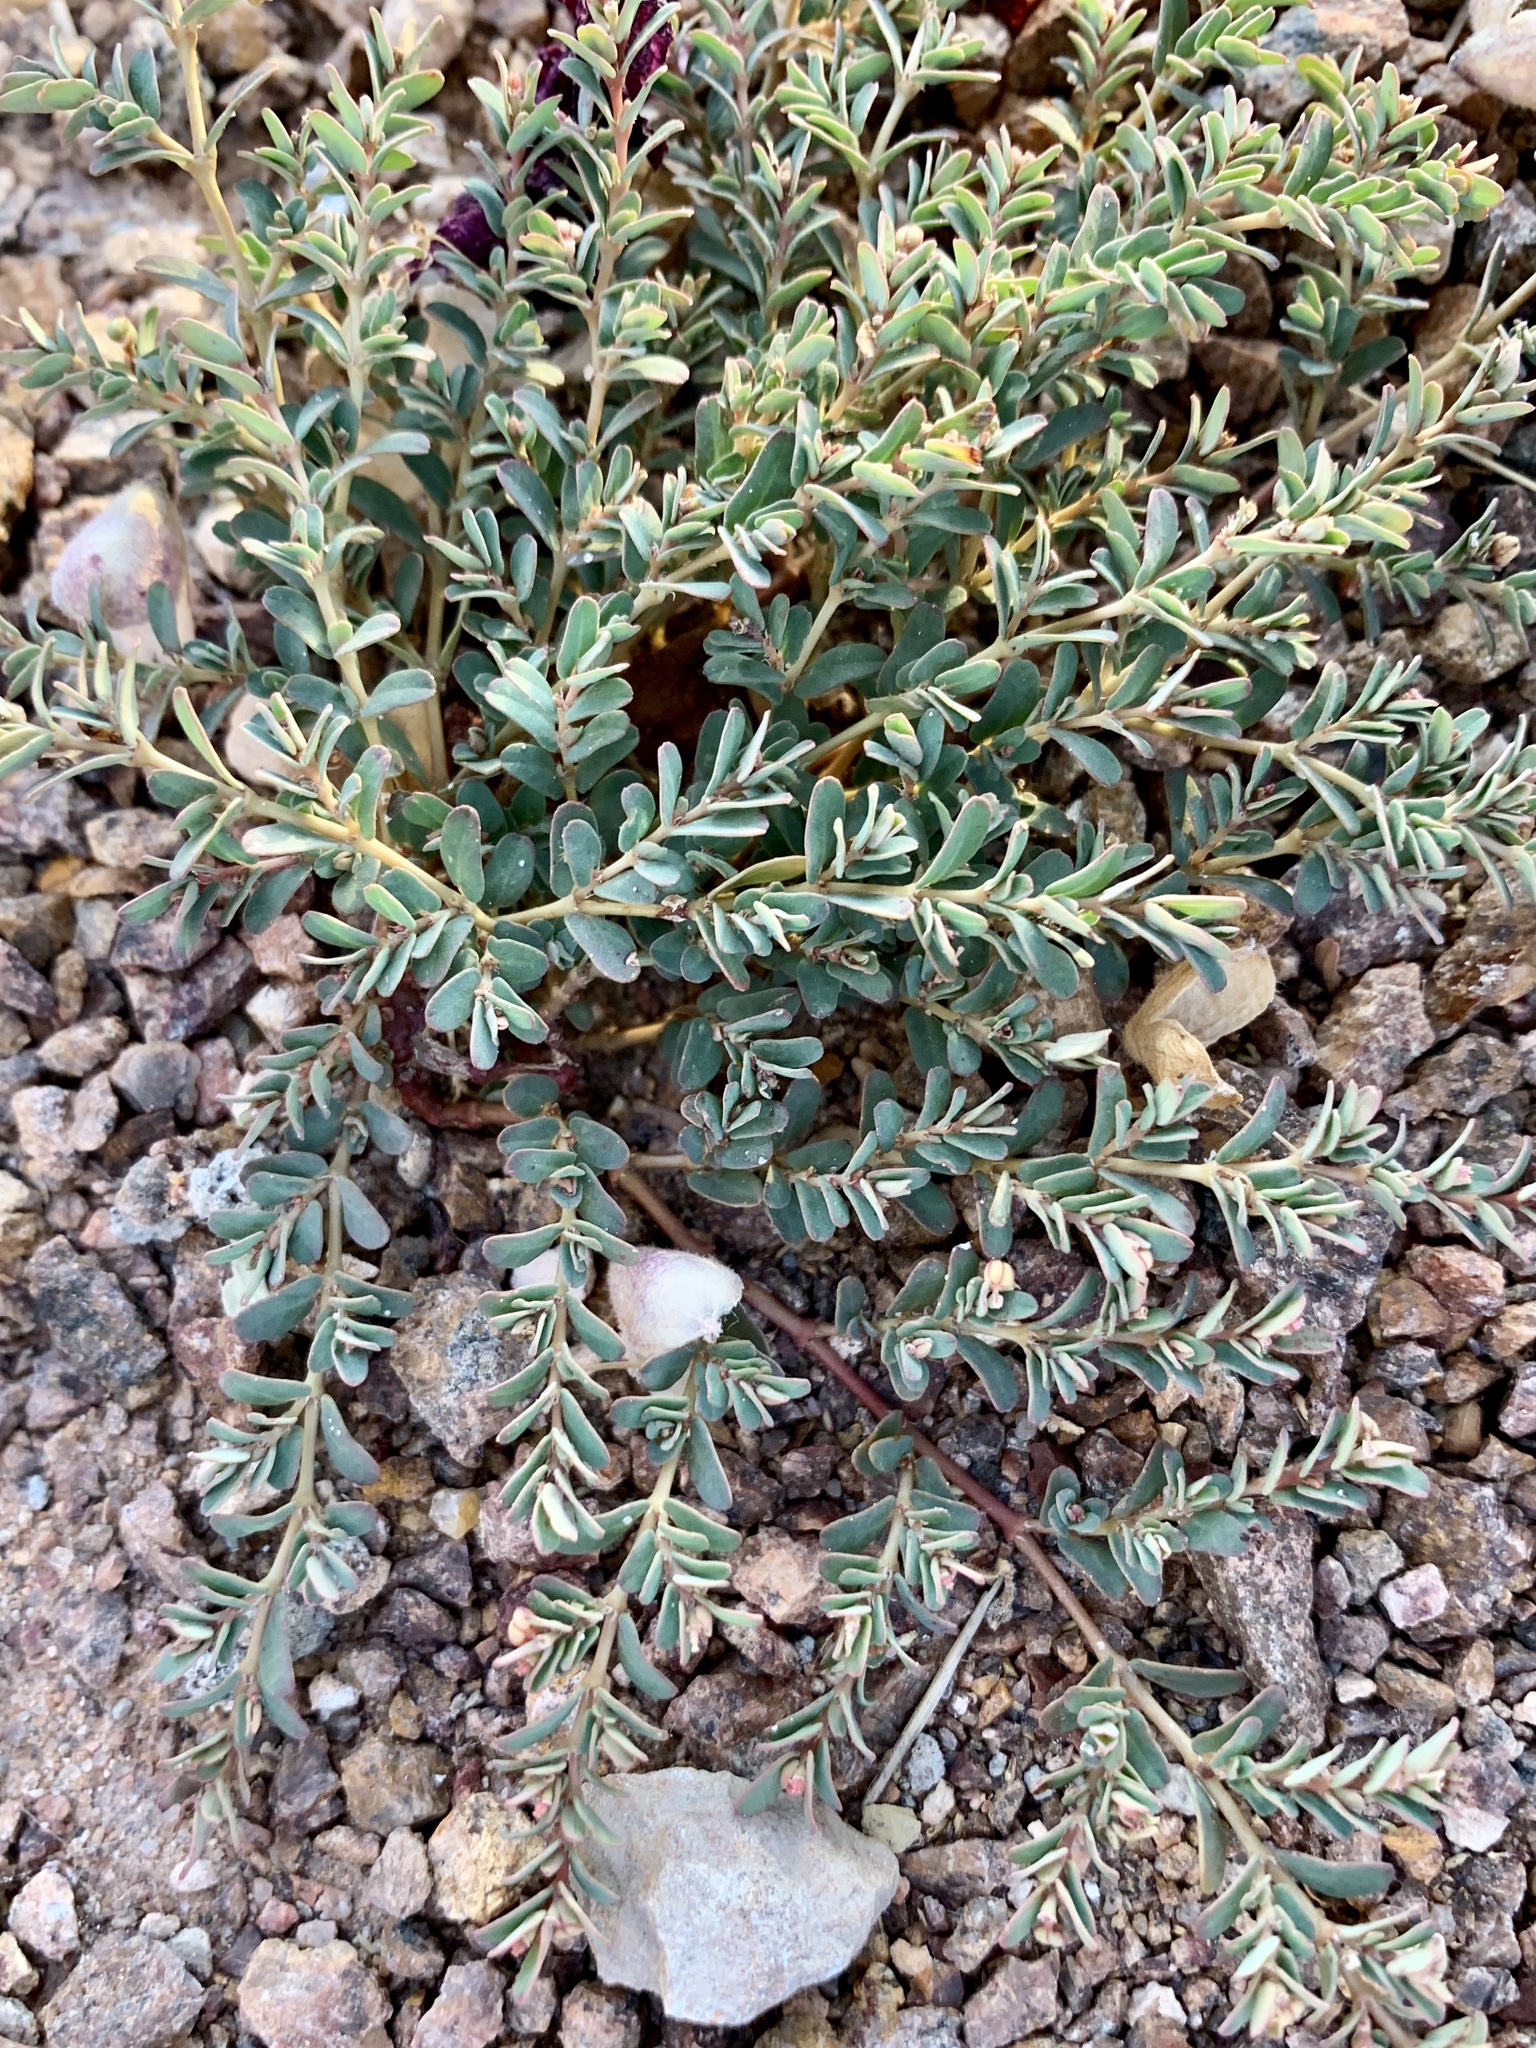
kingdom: Plantae
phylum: Tracheophyta
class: Magnoliopsida
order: Malpighiales
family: Euphorbiaceae
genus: Euphorbia
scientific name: Euphorbia serpillifolia
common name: Thyme-leaf spurge
